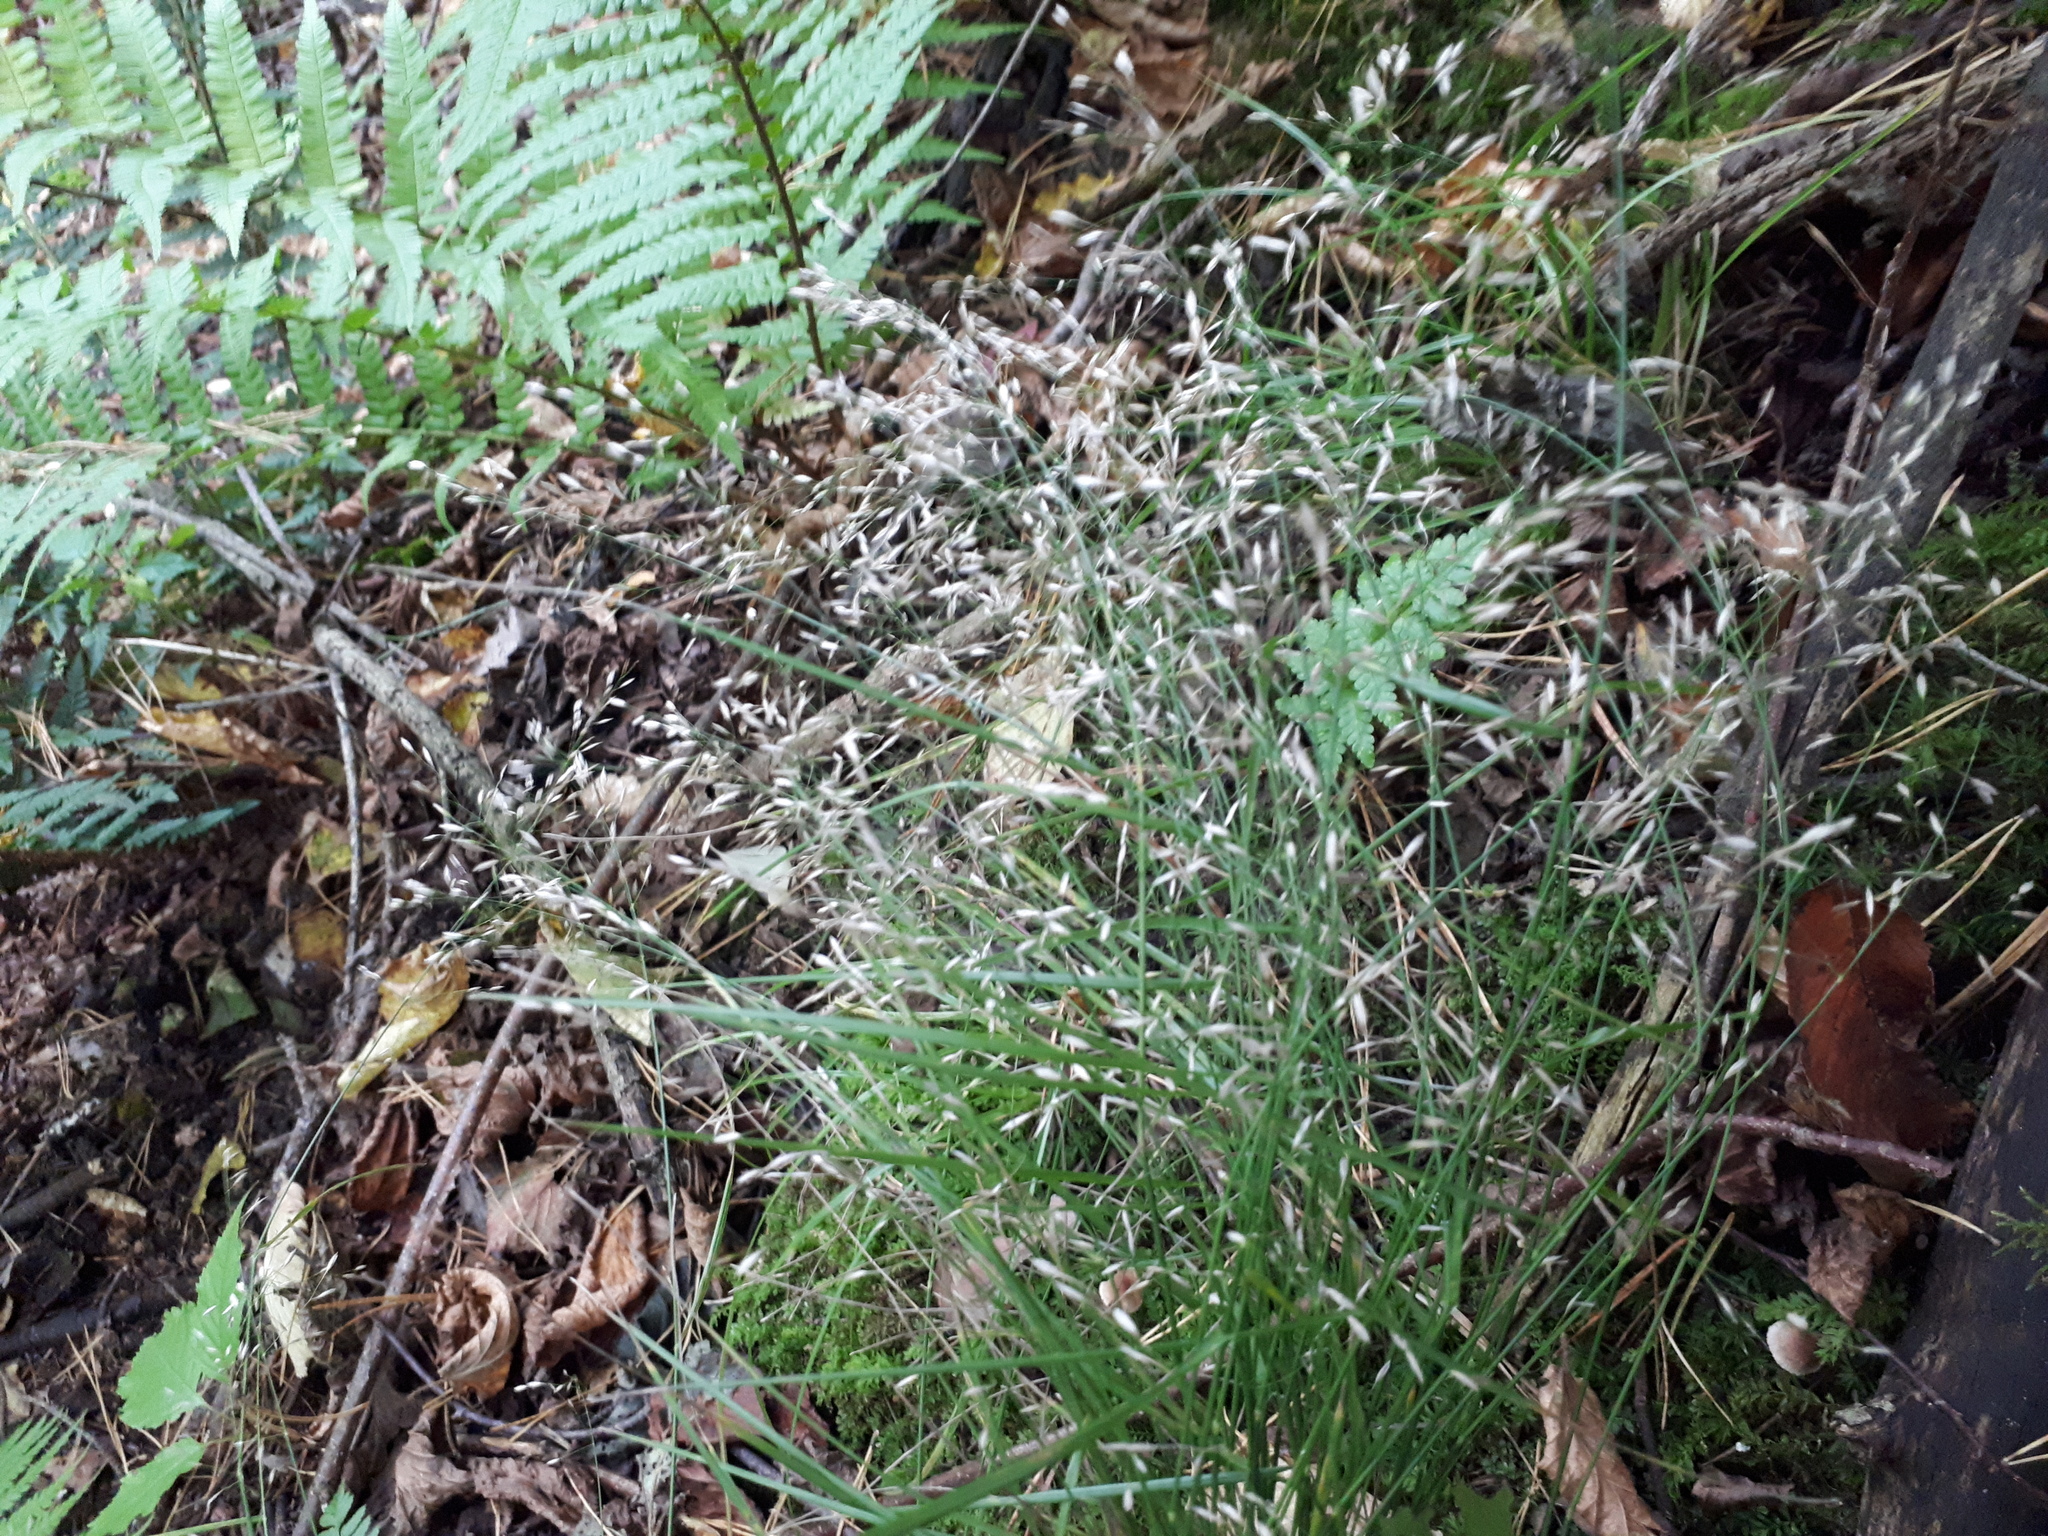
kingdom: Plantae
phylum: Tracheophyta
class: Liliopsida
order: Poales
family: Poaceae
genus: Poa
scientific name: Poa nemoralis
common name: Wood bluegrass
